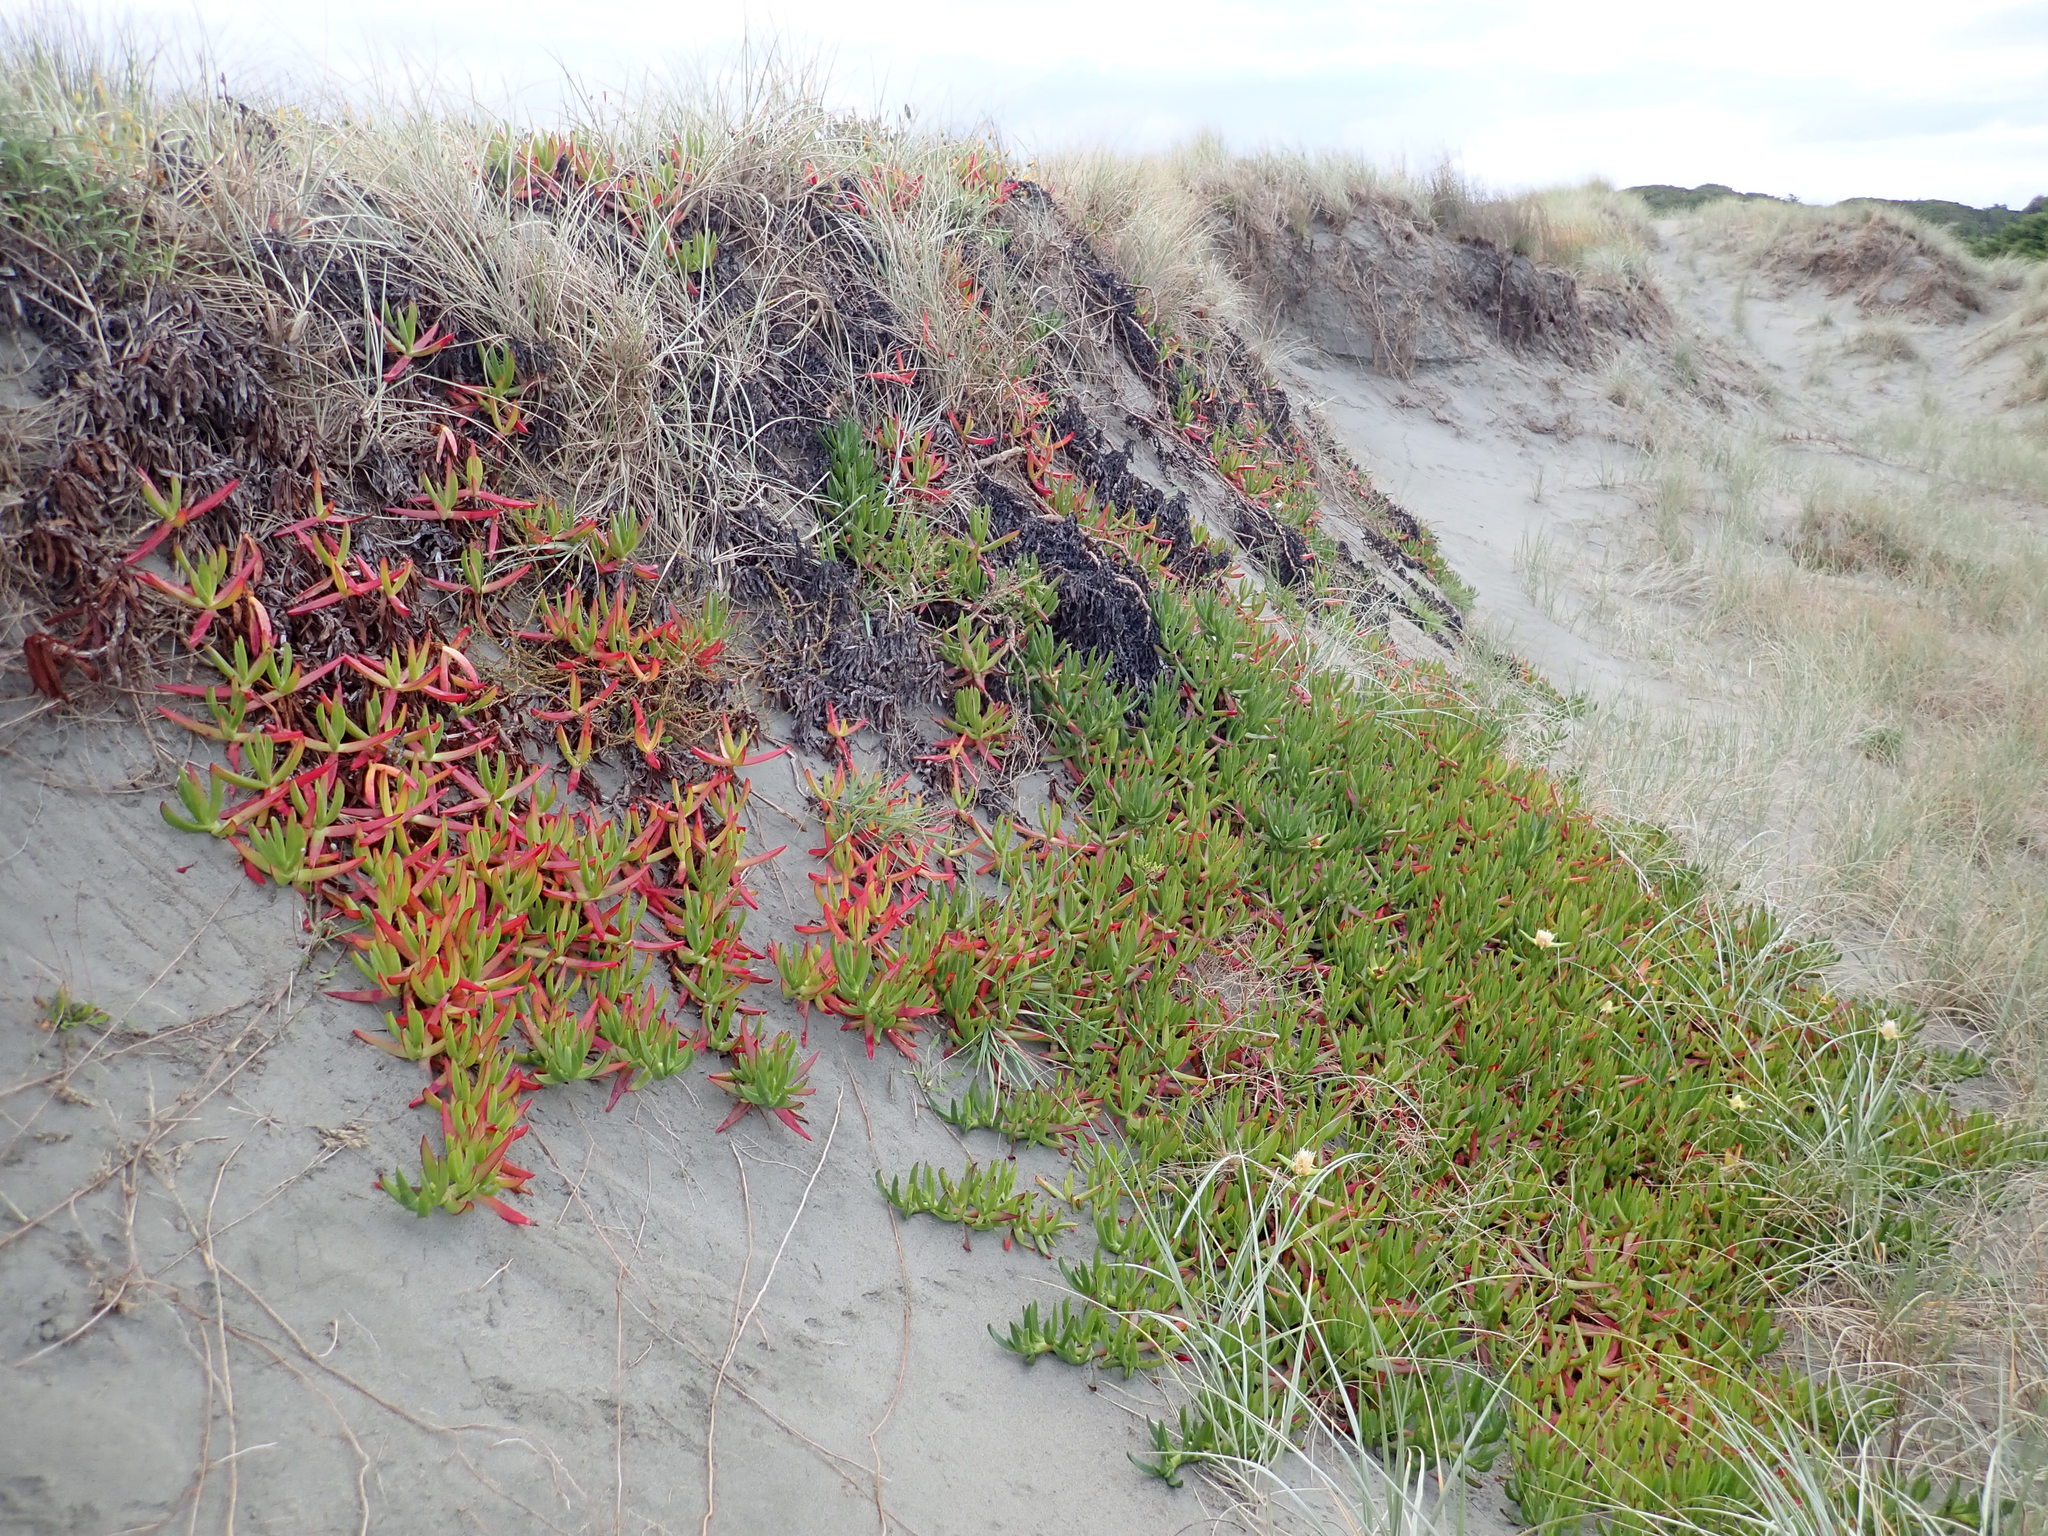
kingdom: Plantae
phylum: Tracheophyta
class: Magnoliopsida
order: Caryophyllales
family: Aizoaceae
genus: Carpobrotus
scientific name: Carpobrotus edulis
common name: Hottentot-fig
